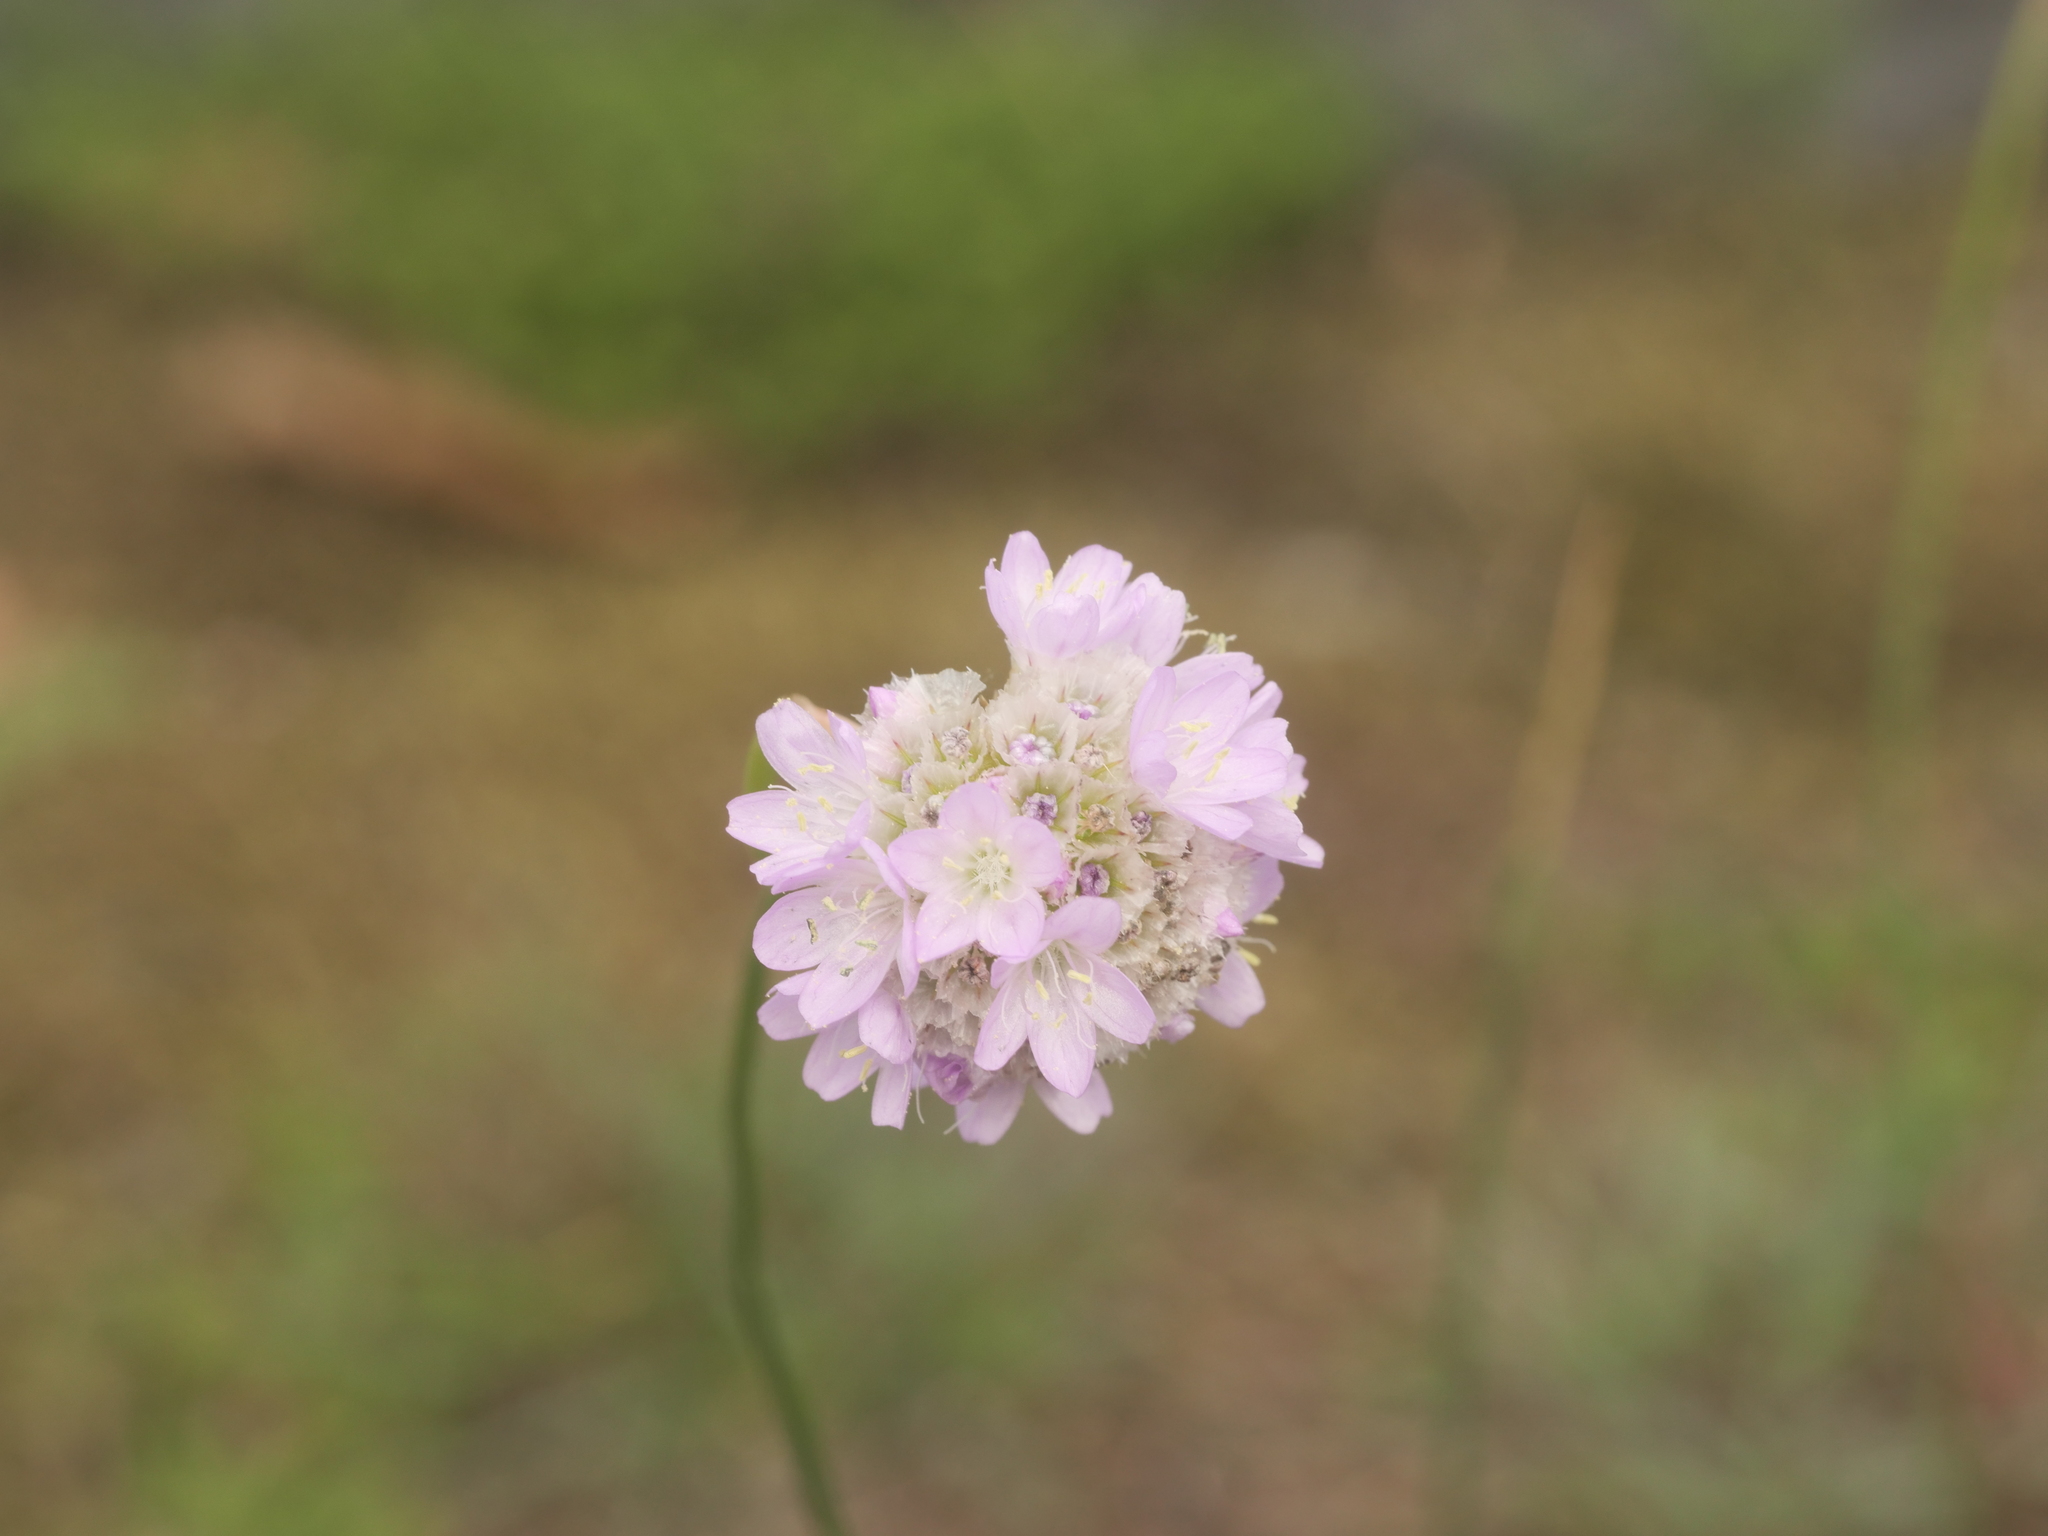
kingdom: Plantae
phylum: Tracheophyta
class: Magnoliopsida
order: Caryophyllales
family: Plumbaginaceae
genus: Armeria
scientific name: Armeria maritima
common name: Thrift
